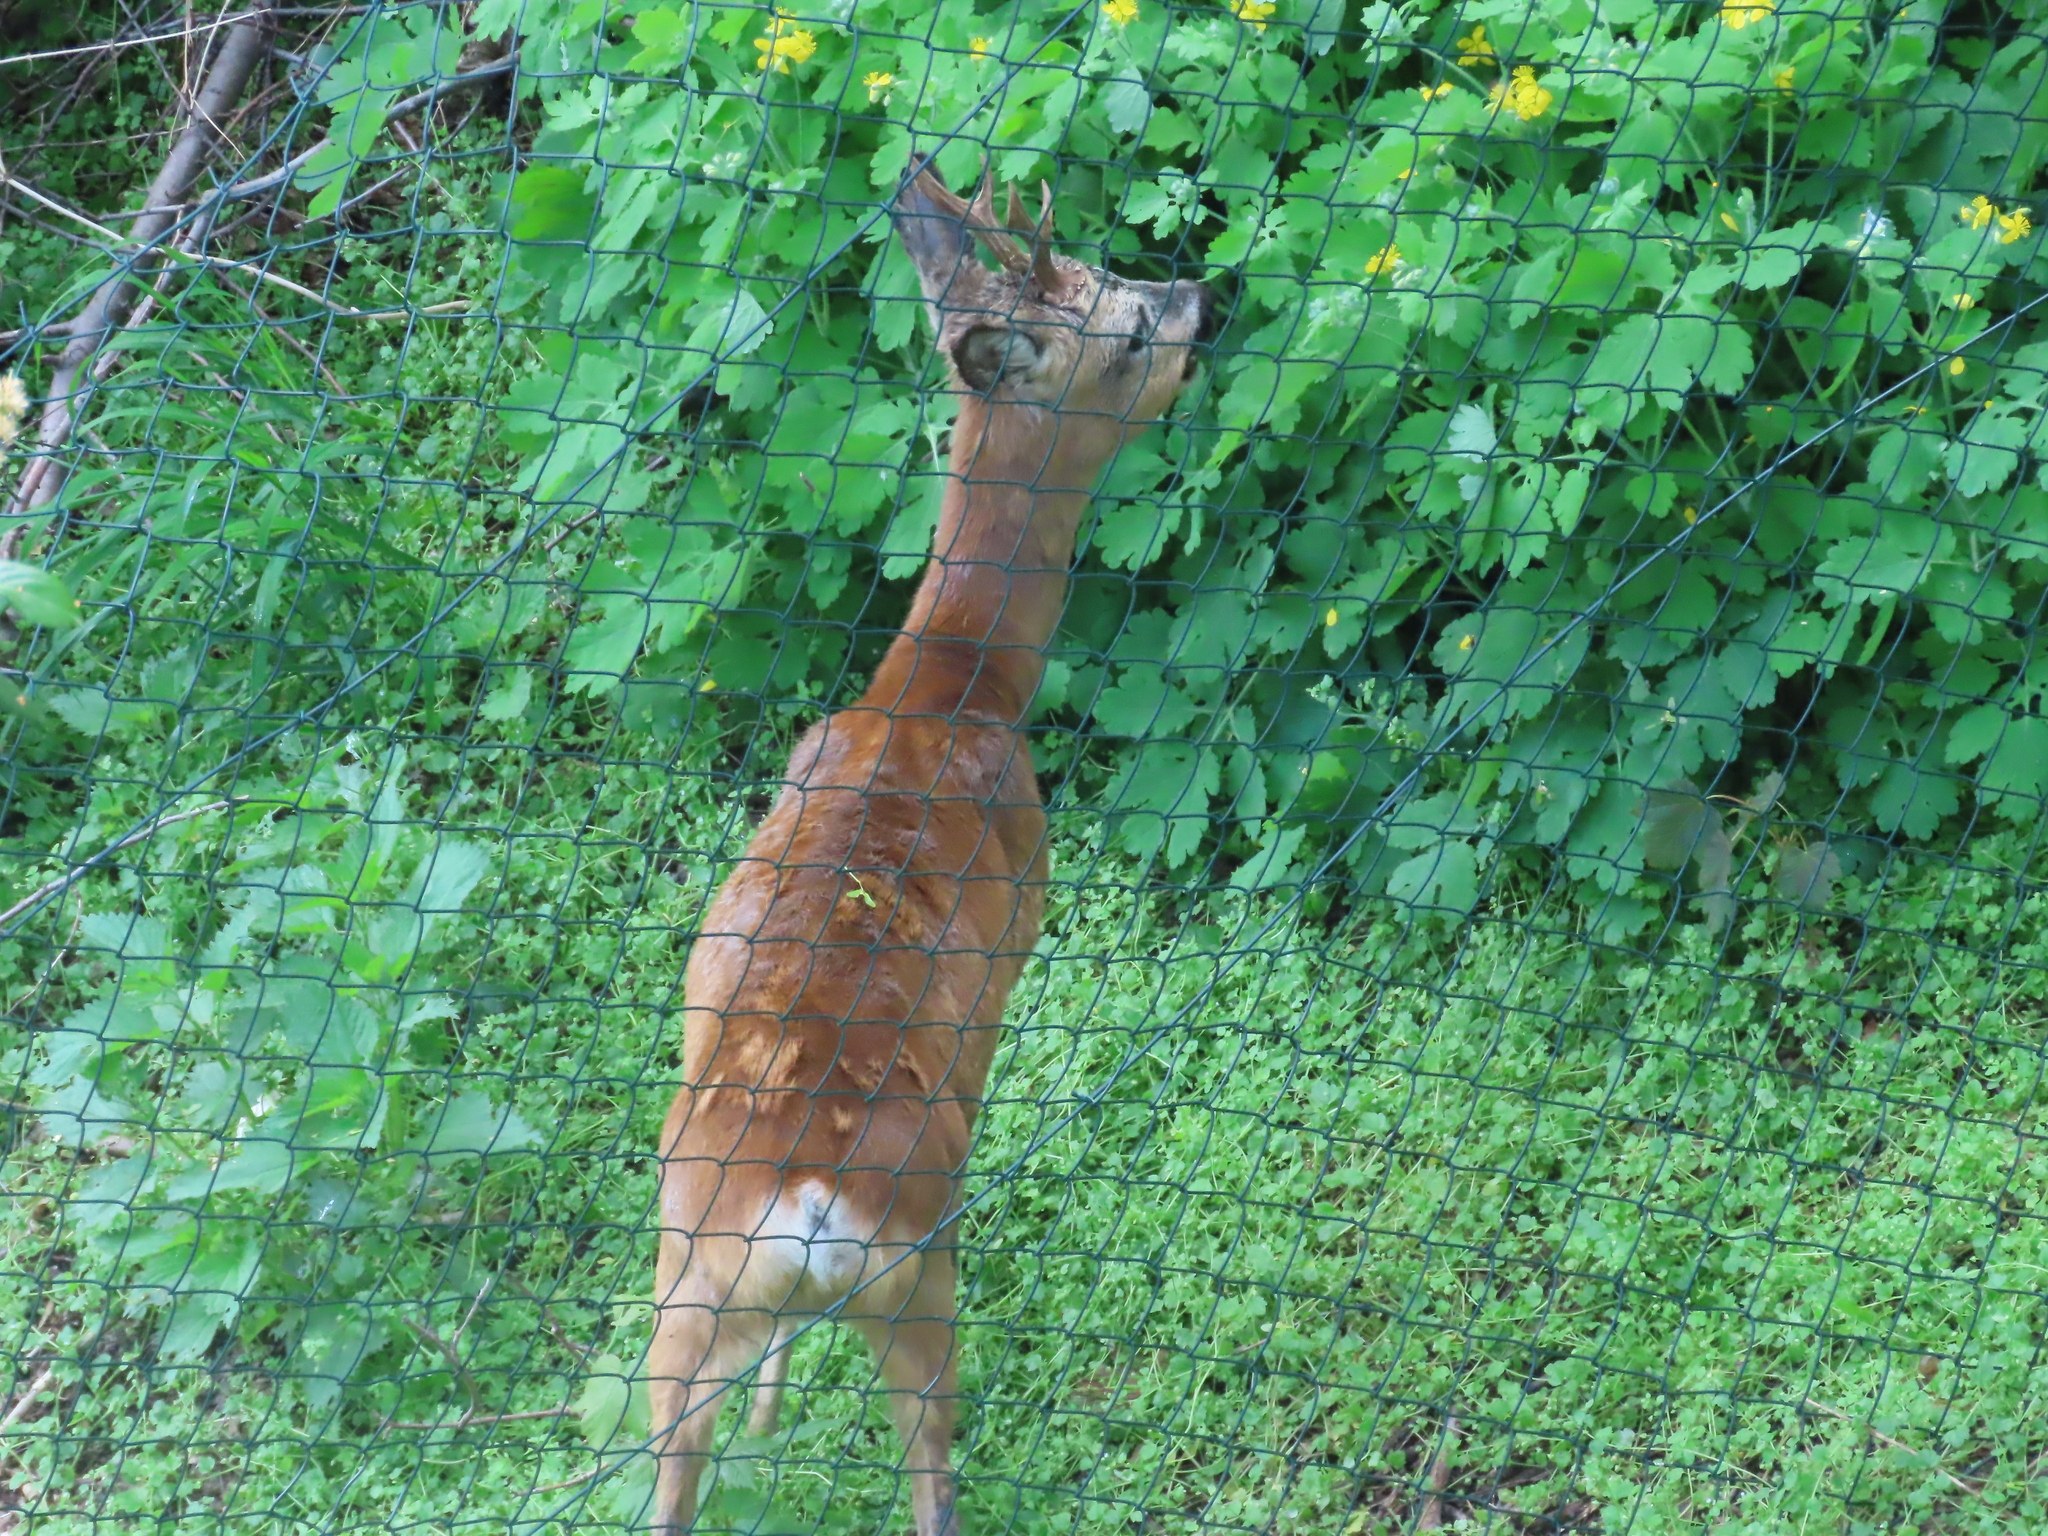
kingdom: Animalia
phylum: Chordata
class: Mammalia
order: Artiodactyla
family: Cervidae
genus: Capreolus
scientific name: Capreolus capreolus
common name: Western roe deer
